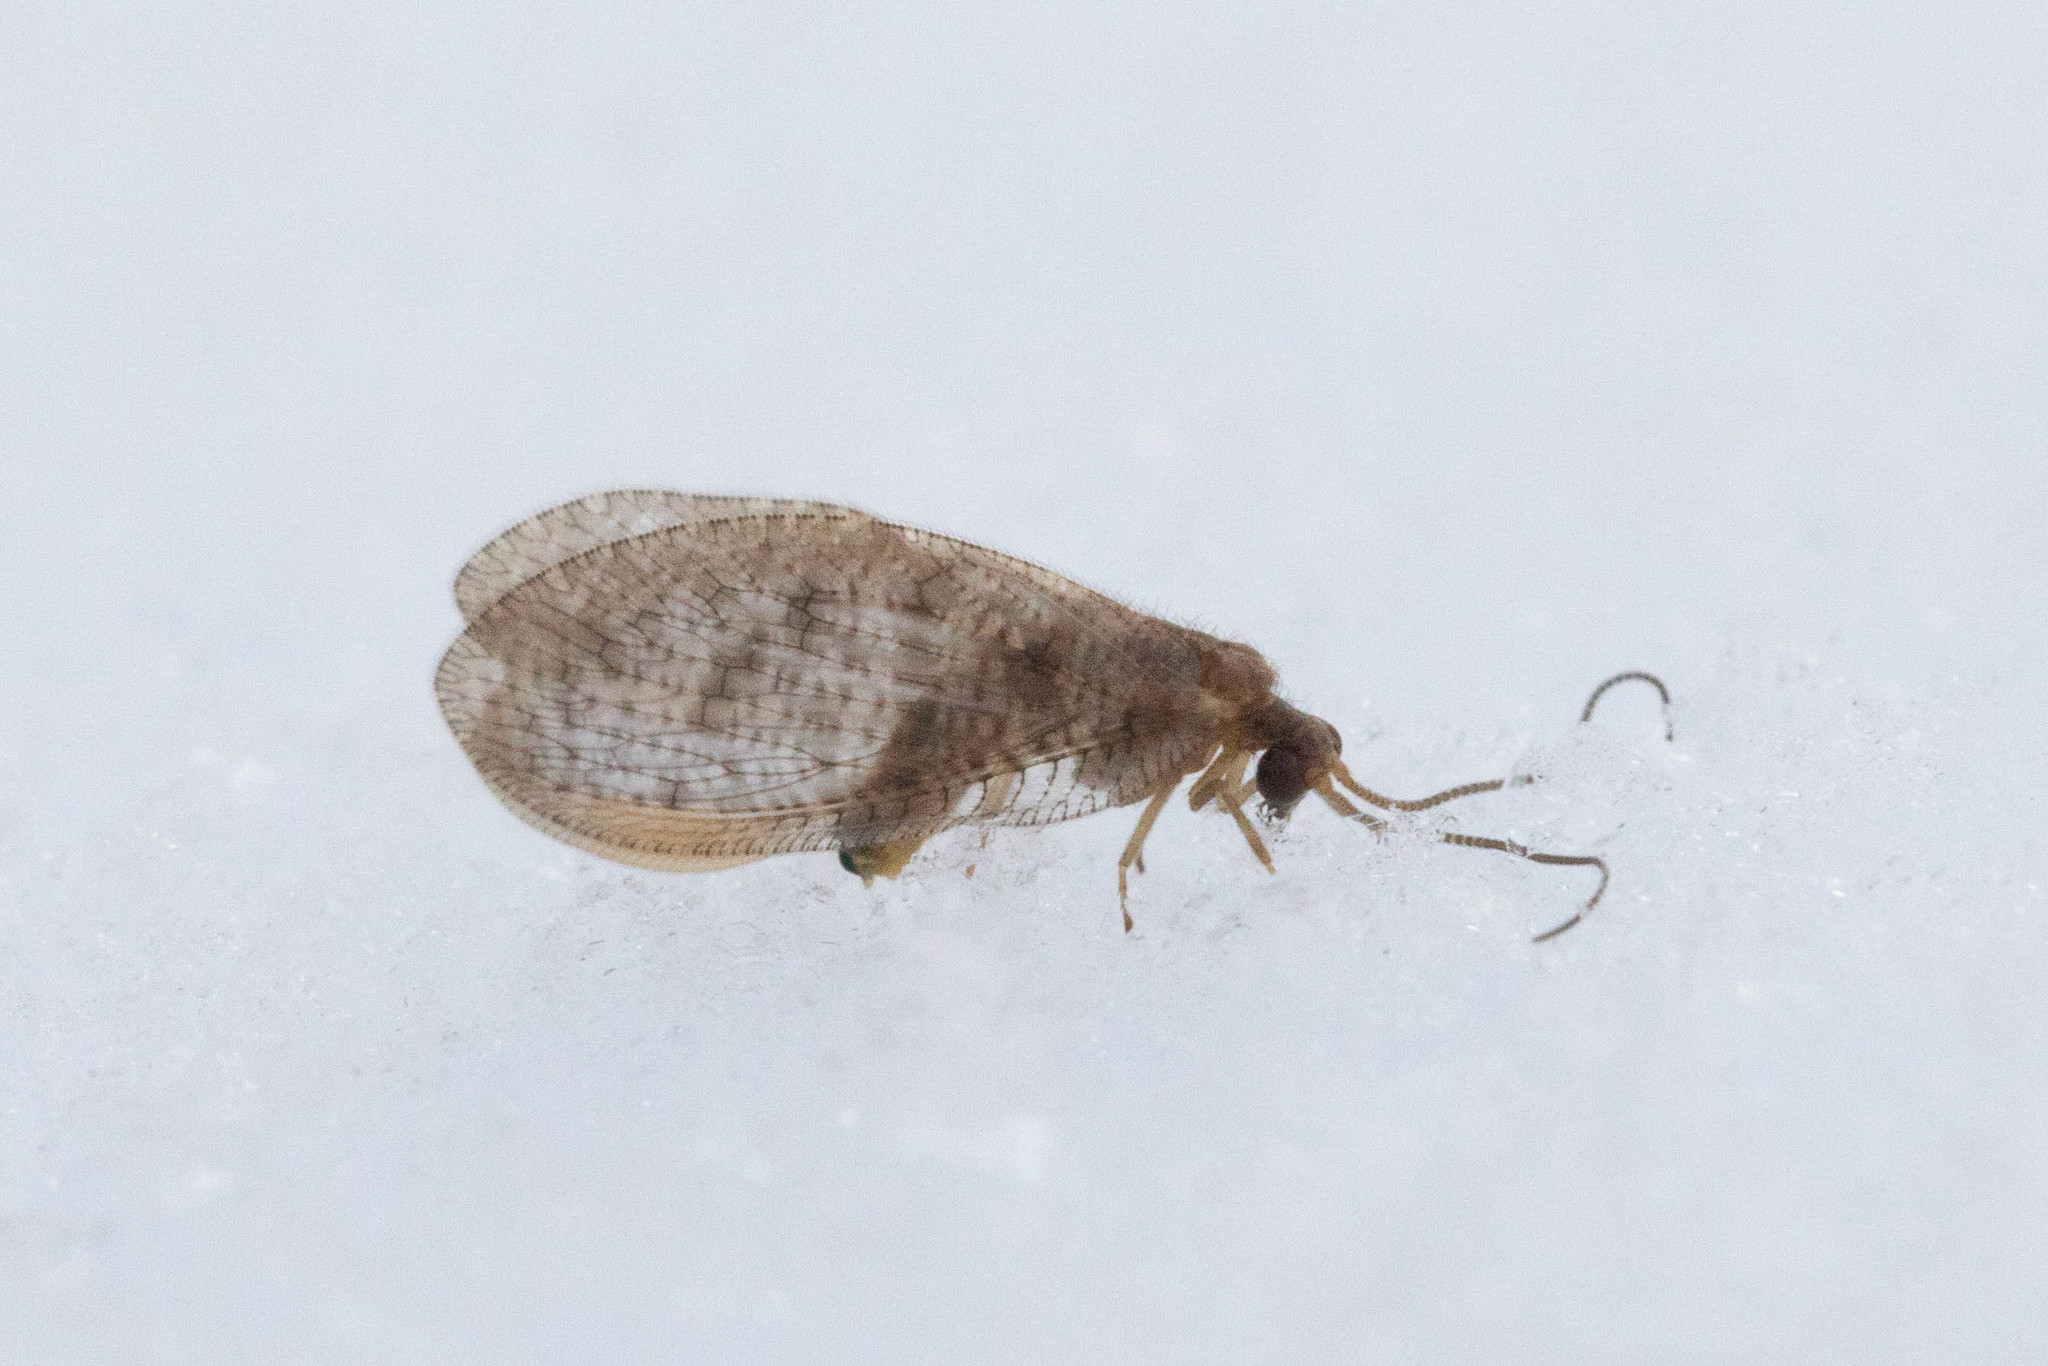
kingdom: Animalia
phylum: Arthropoda
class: Insecta
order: Neuroptera
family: Hemerobiidae
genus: Hemerobius
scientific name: Hemerobius stigma
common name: Brown pine lacewing
